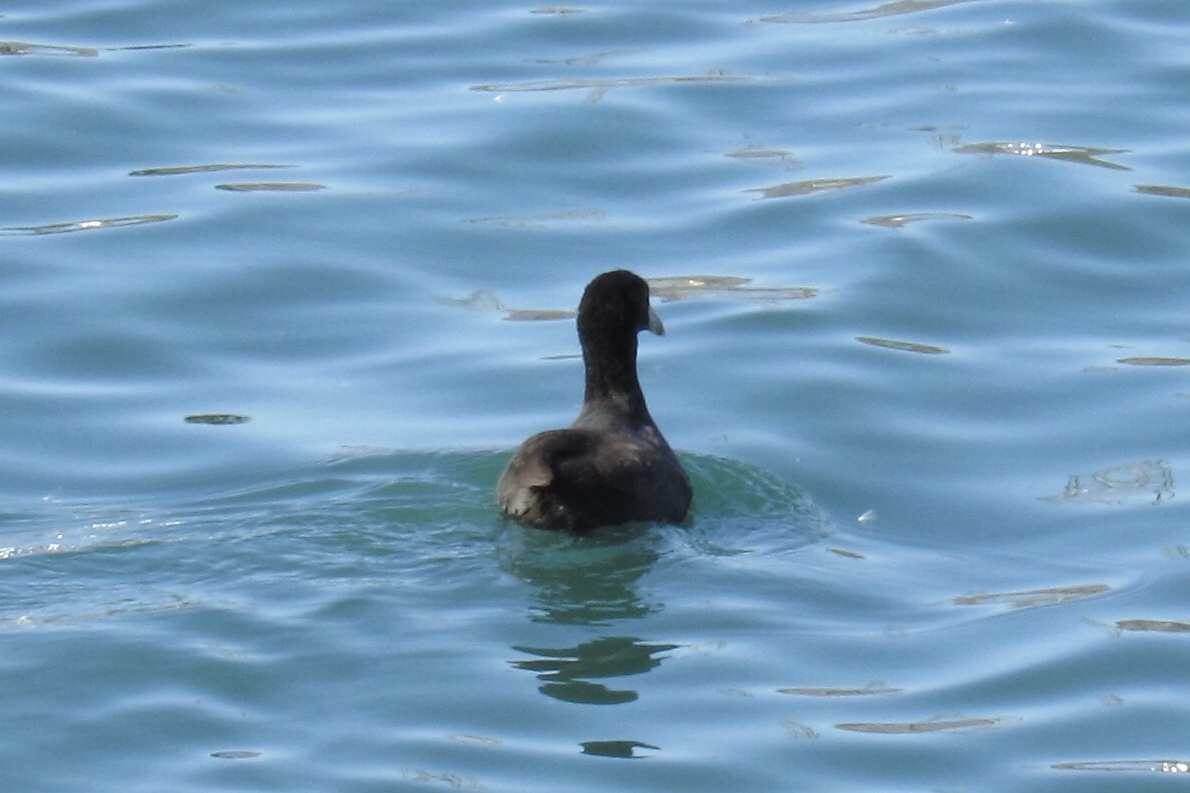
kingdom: Animalia
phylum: Chordata
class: Aves
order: Gruiformes
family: Rallidae
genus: Fulica
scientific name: Fulica americana
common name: American coot
